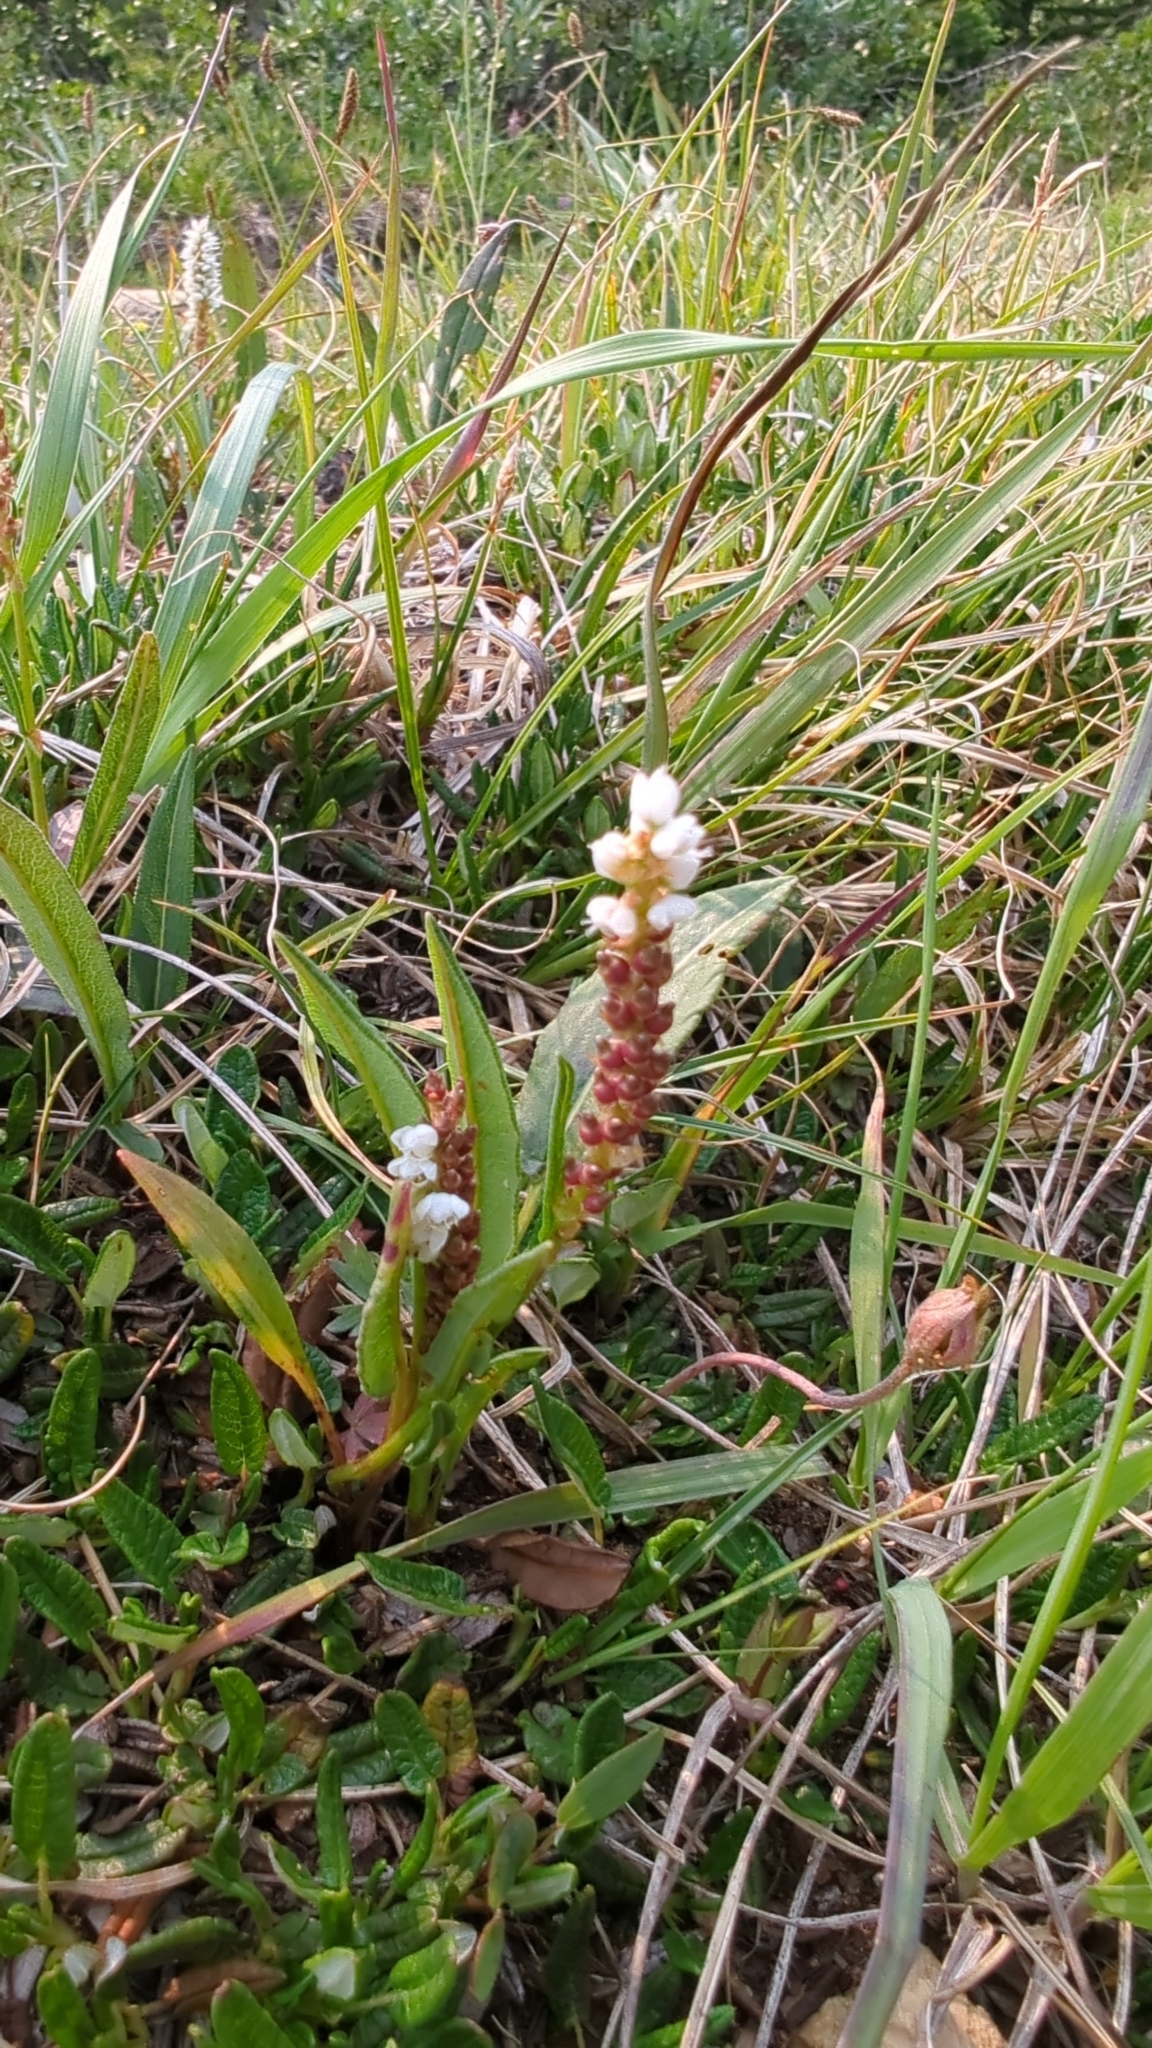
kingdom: Plantae
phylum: Tracheophyta
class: Magnoliopsida
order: Caryophyllales
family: Polygonaceae
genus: Bistorta
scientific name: Bistorta vivipara
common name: Alpine bistort
